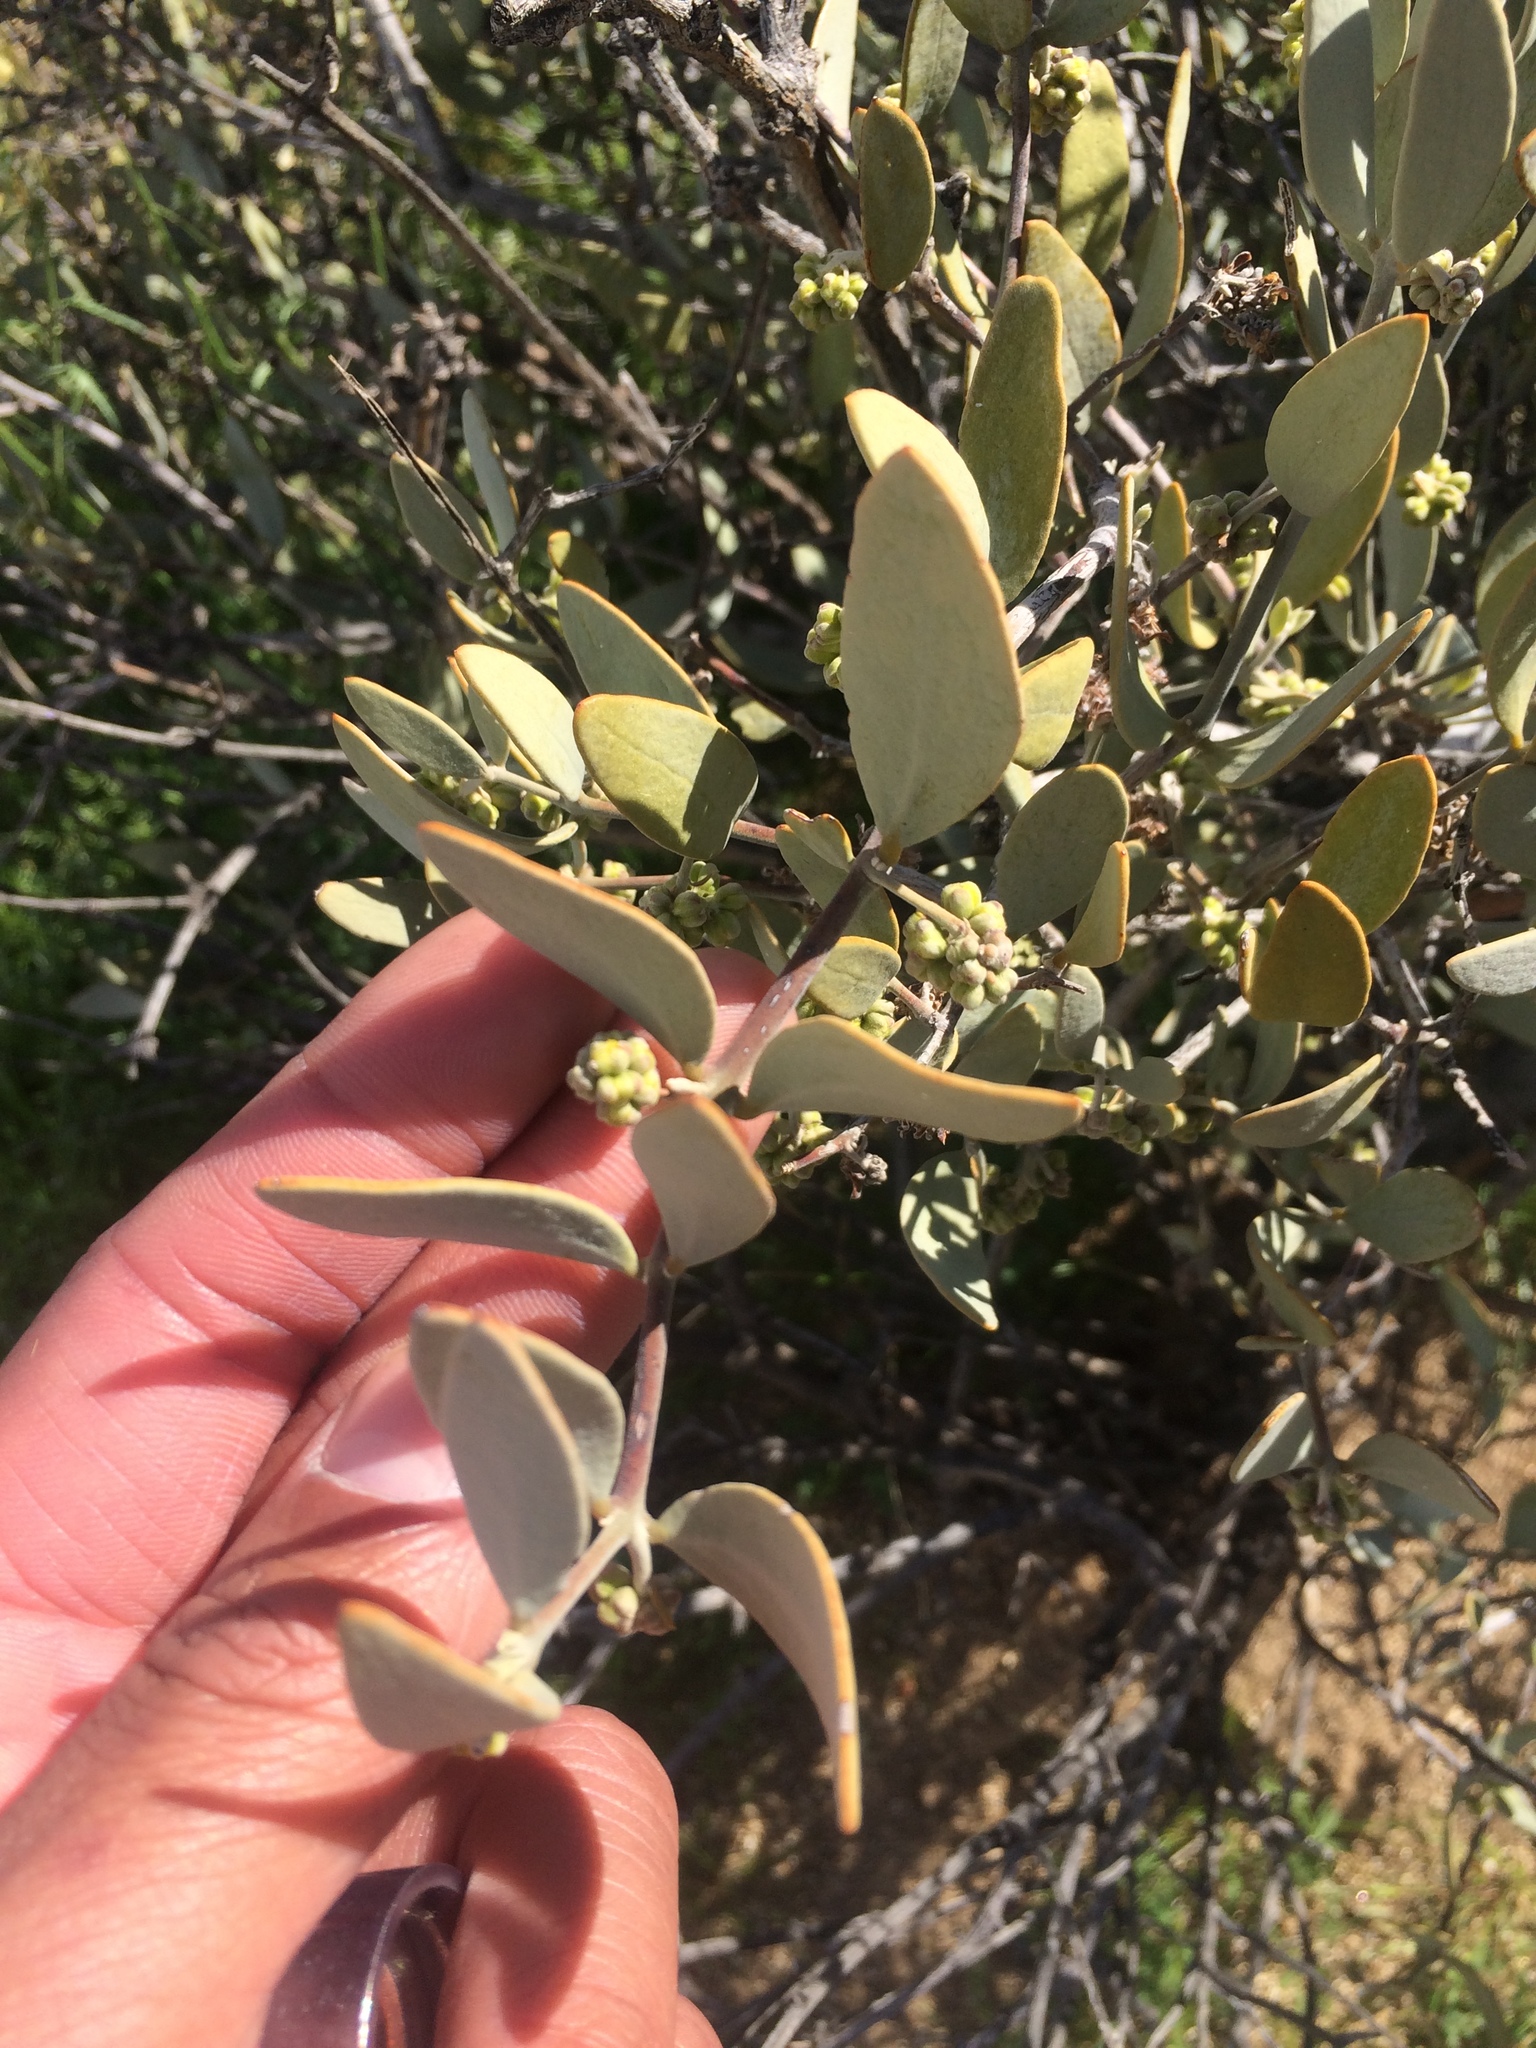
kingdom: Plantae
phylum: Tracheophyta
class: Magnoliopsida
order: Caryophyllales
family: Simmondsiaceae
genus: Simmondsia
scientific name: Simmondsia chinensis
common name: Jojoba
